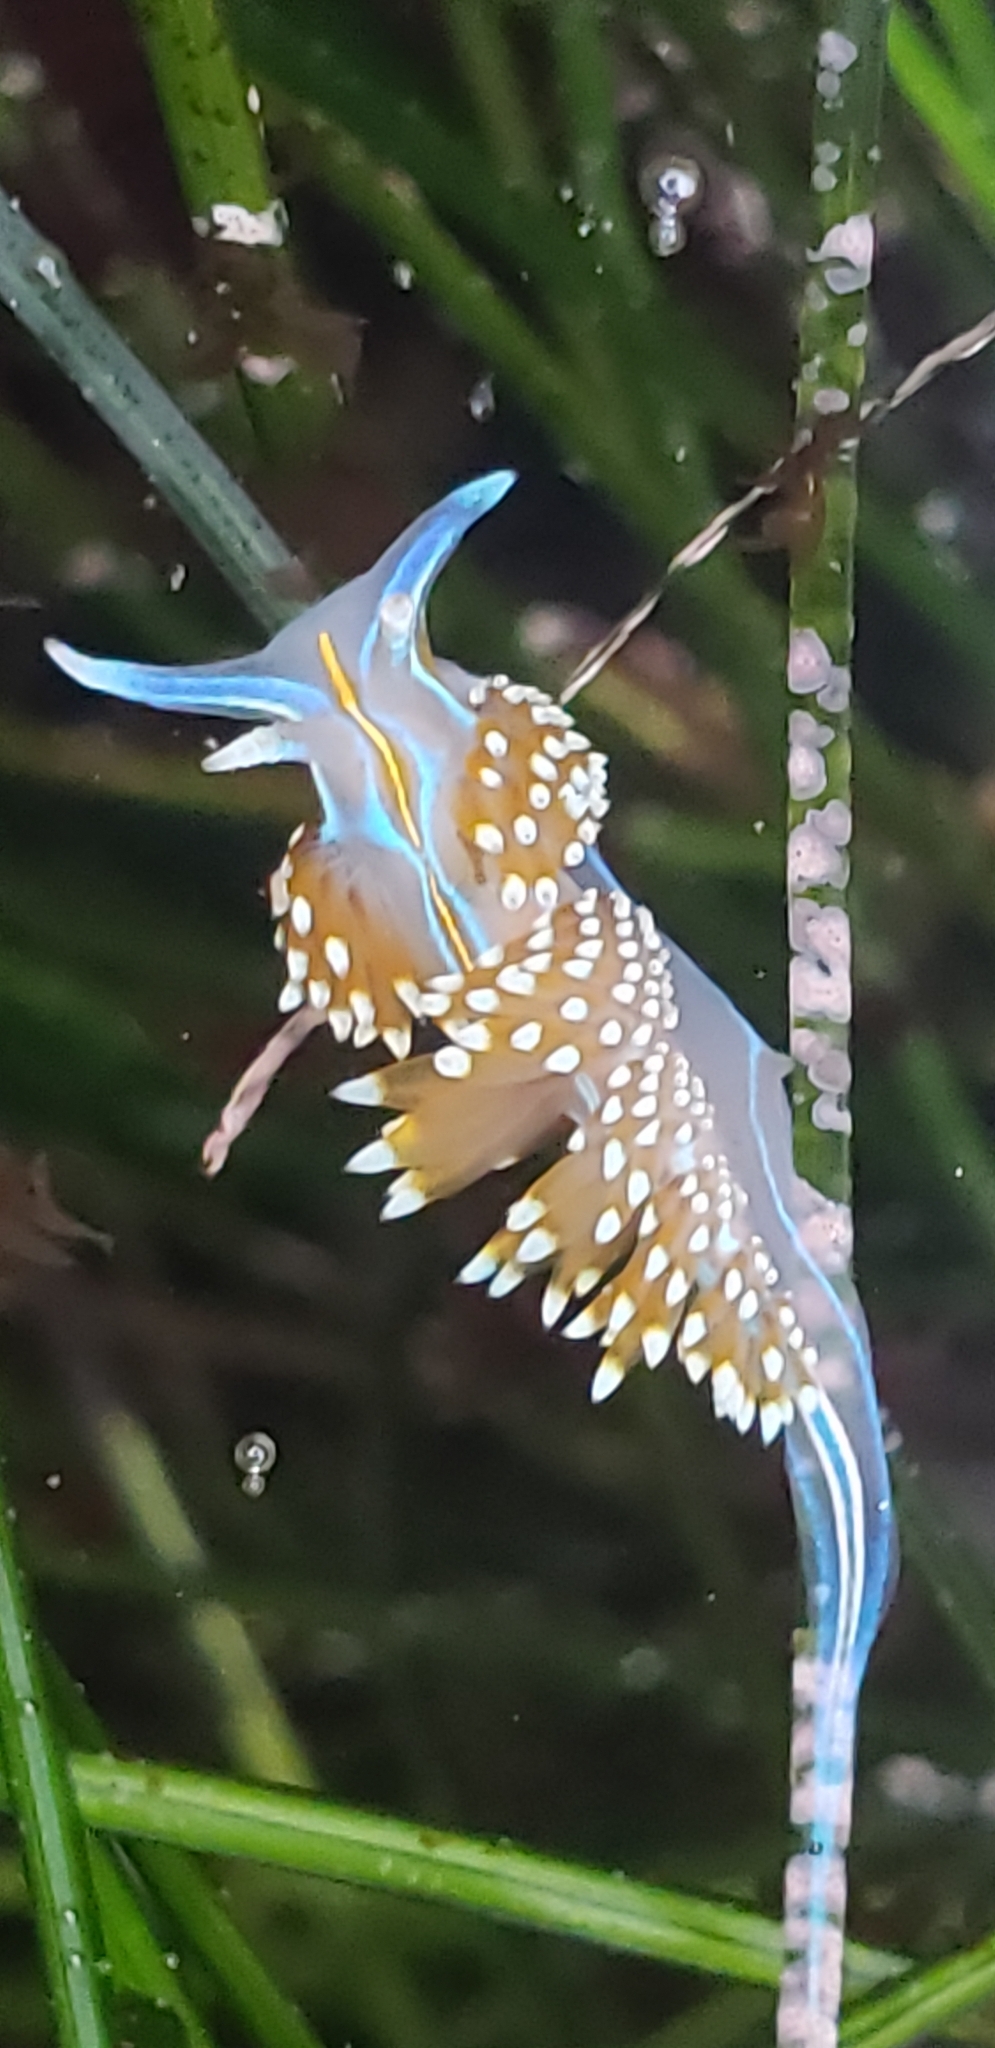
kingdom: Animalia
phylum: Mollusca
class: Gastropoda
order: Nudibranchia
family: Myrrhinidae
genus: Hermissenda
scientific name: Hermissenda opalescens
